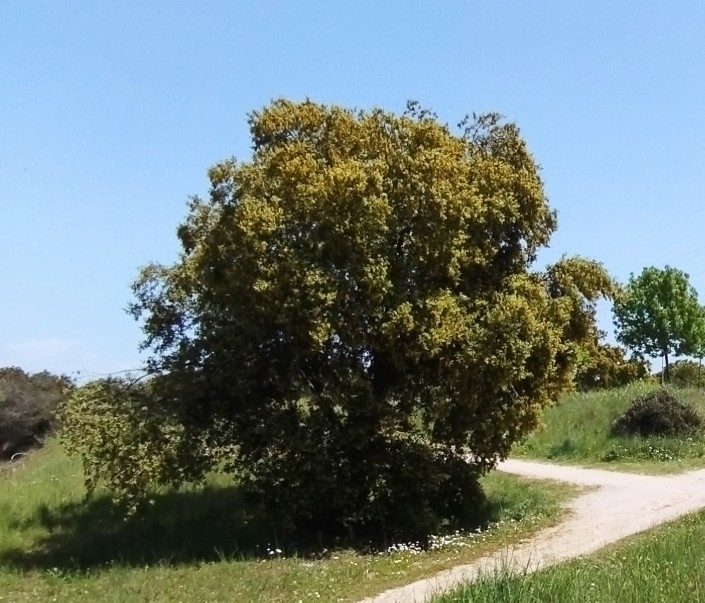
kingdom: Plantae
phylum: Tracheophyta
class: Magnoliopsida
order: Fagales
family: Fagaceae
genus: Quercus
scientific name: Quercus rotundifolia
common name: Holm oak
